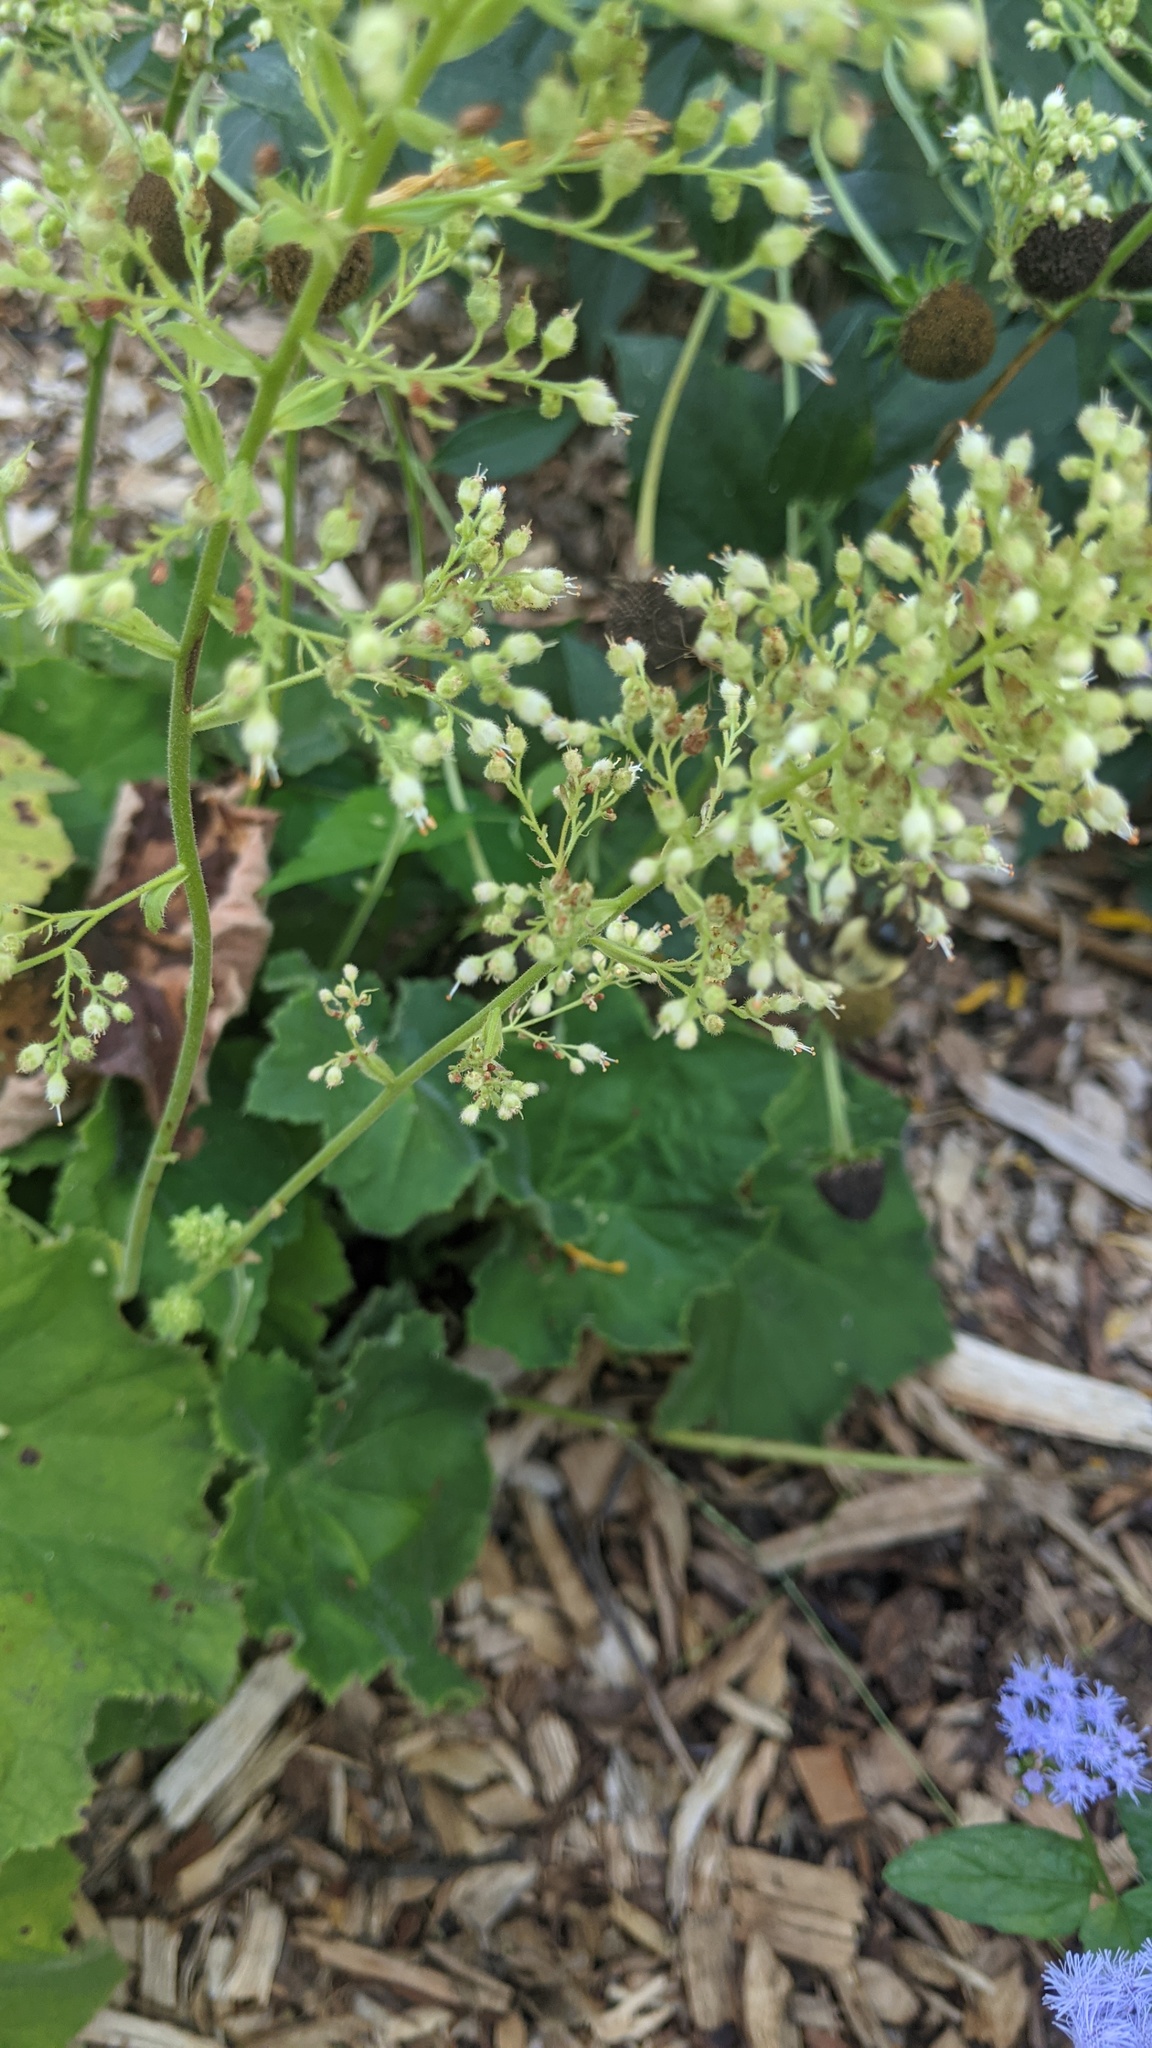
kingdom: Animalia
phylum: Arthropoda
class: Insecta
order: Hymenoptera
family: Apidae
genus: Bombus
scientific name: Bombus impatiens
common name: Common eastern bumble bee
